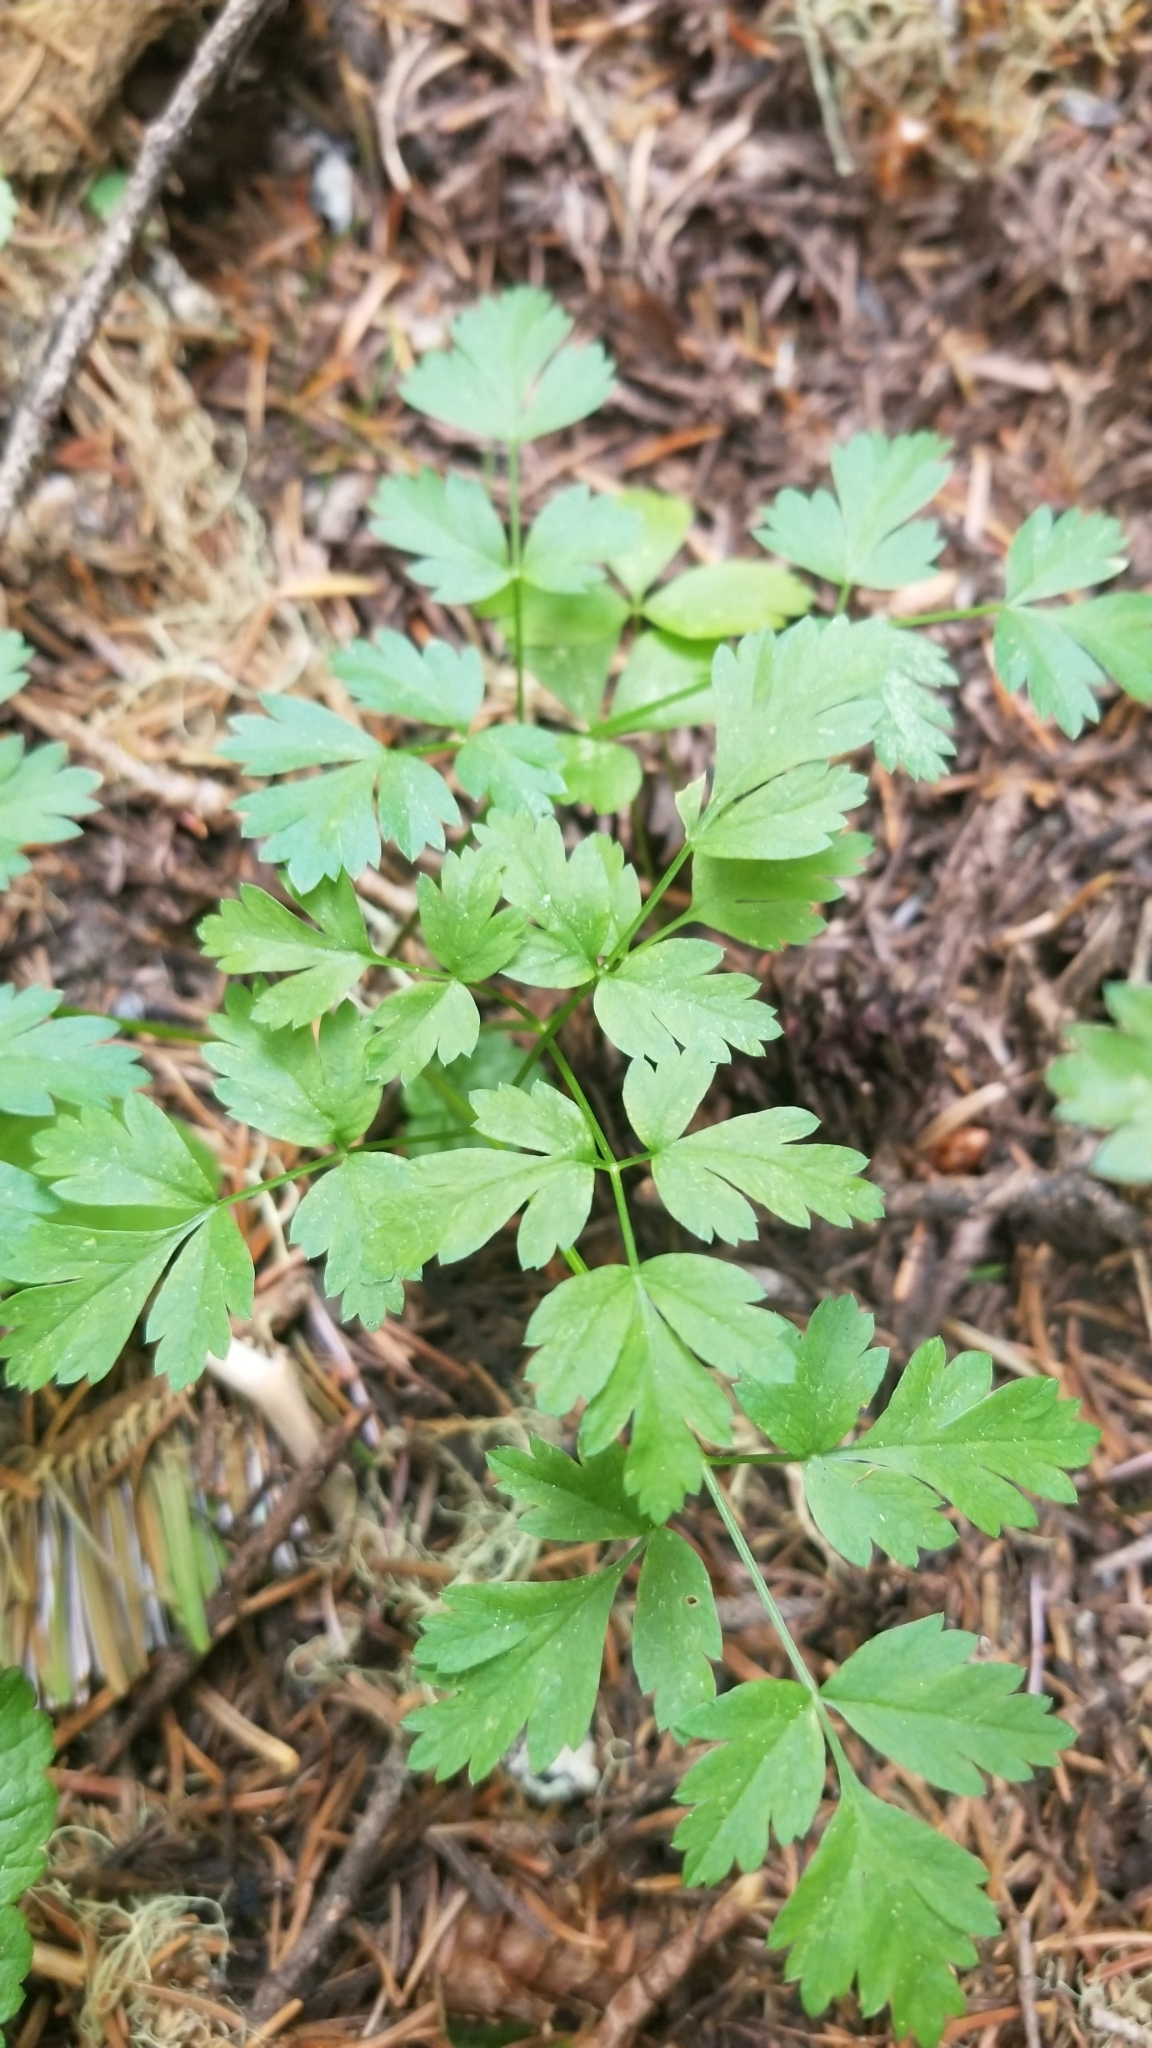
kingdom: Plantae
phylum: Tracheophyta
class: Magnoliopsida
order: Apiales
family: Apiaceae
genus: Osmorhiza
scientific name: Osmorhiza berteroi
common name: Mountain sweet cicely
